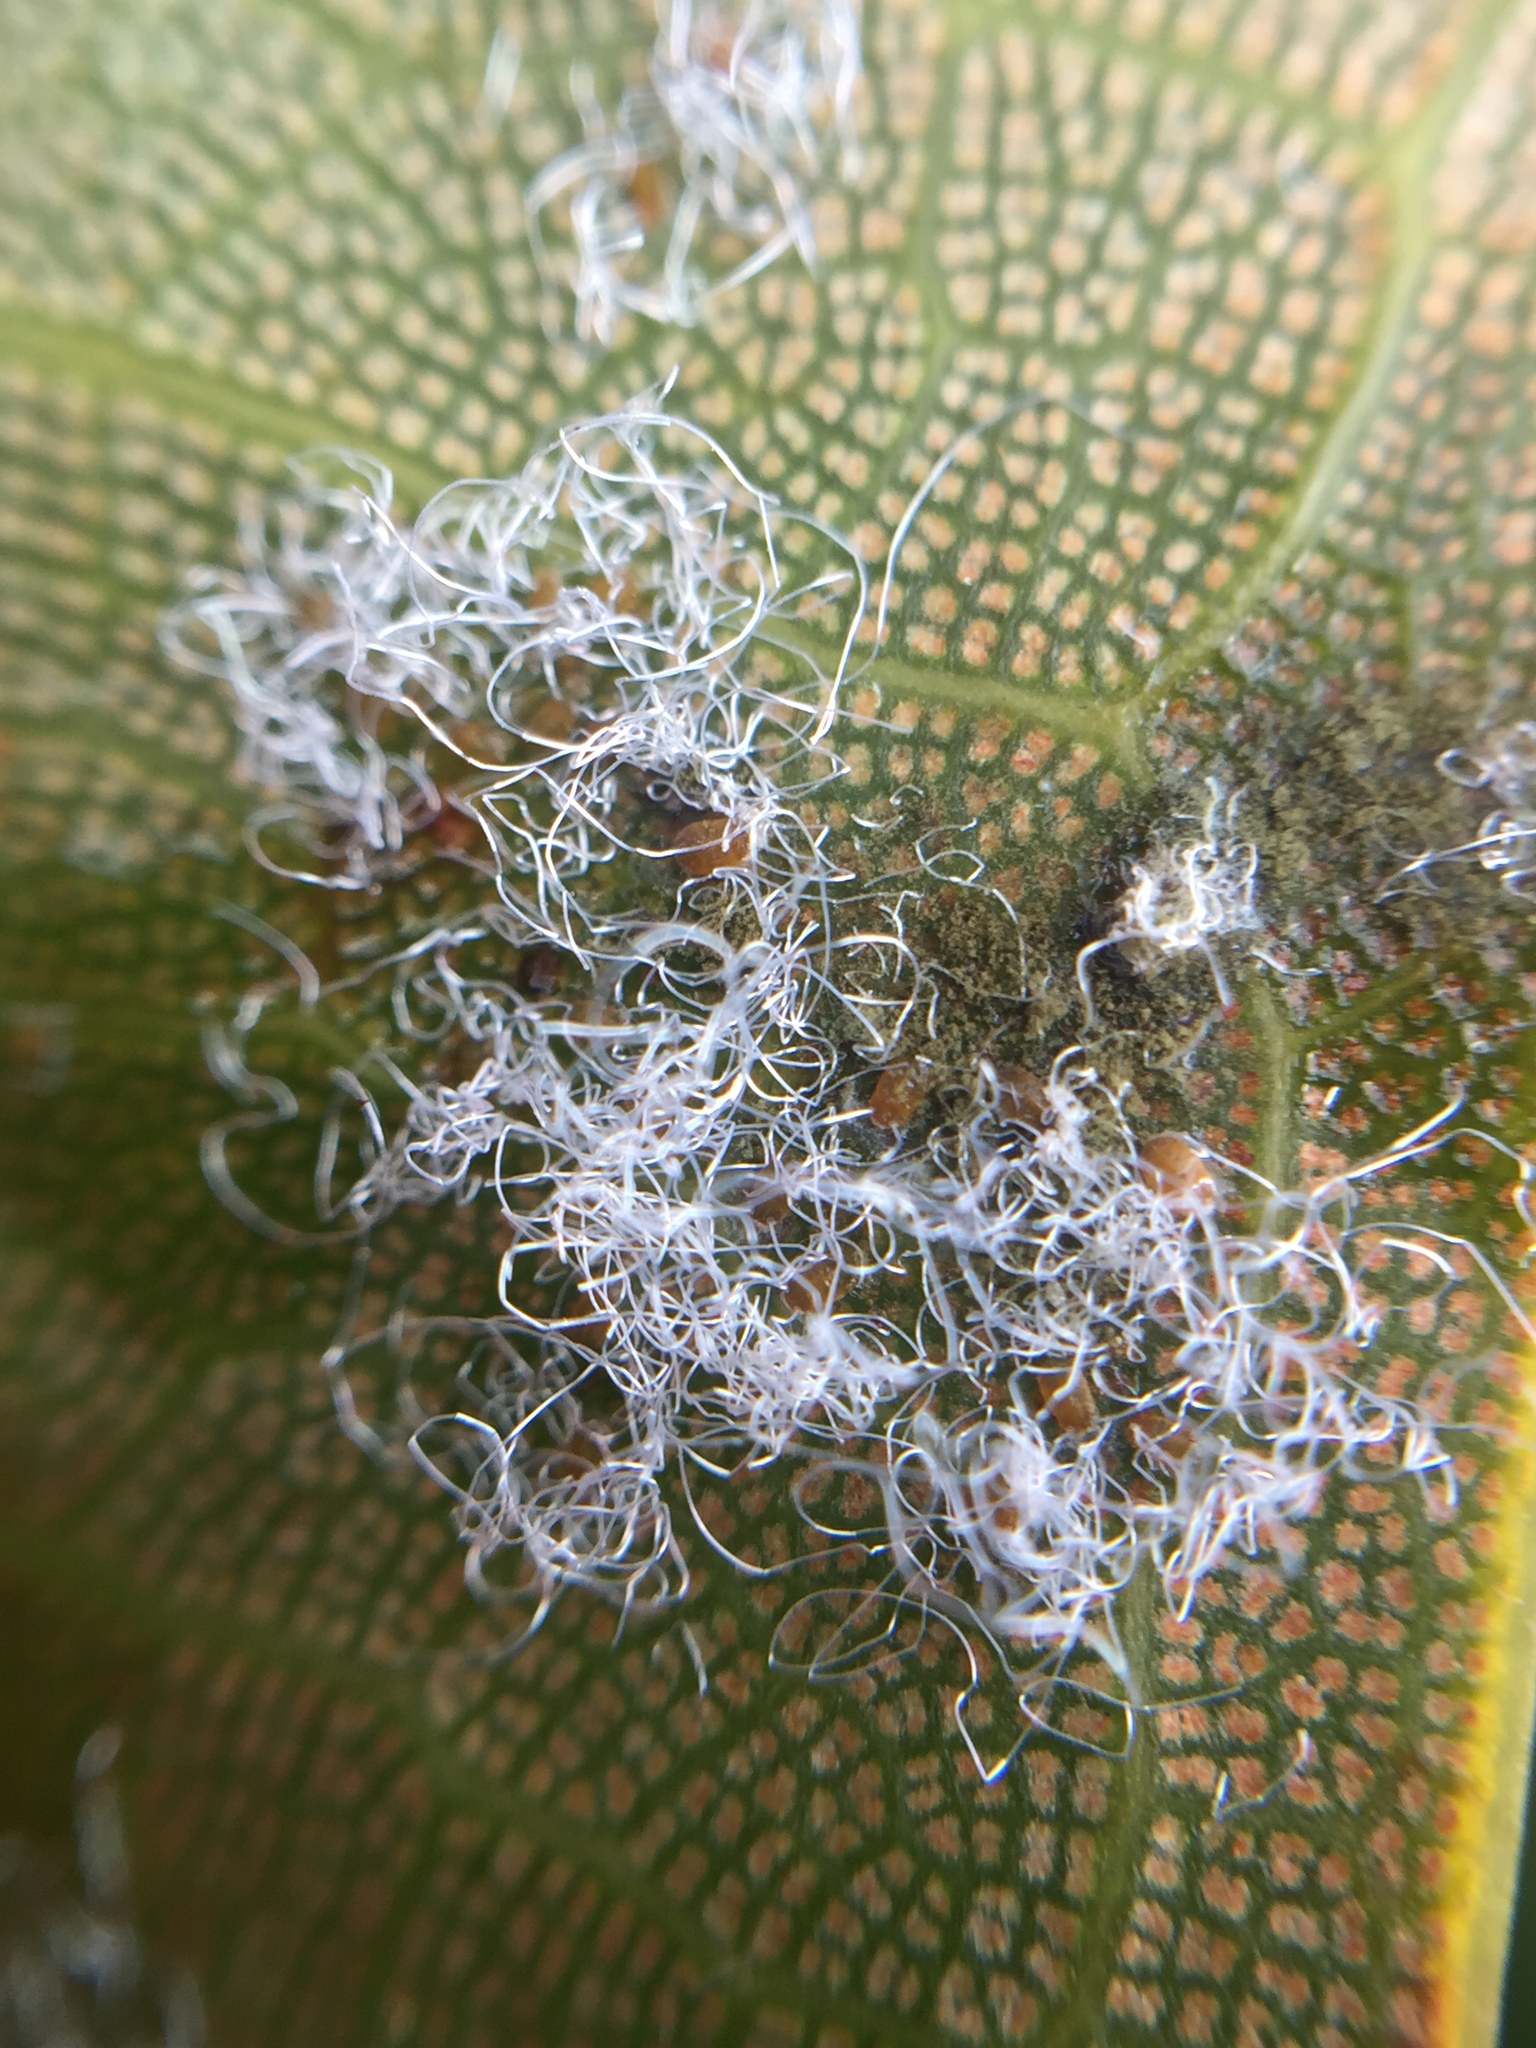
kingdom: Animalia
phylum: Arthropoda
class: Insecta
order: Hemiptera
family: Homotomidae
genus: Mycopsylla
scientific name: Mycopsylla fici
